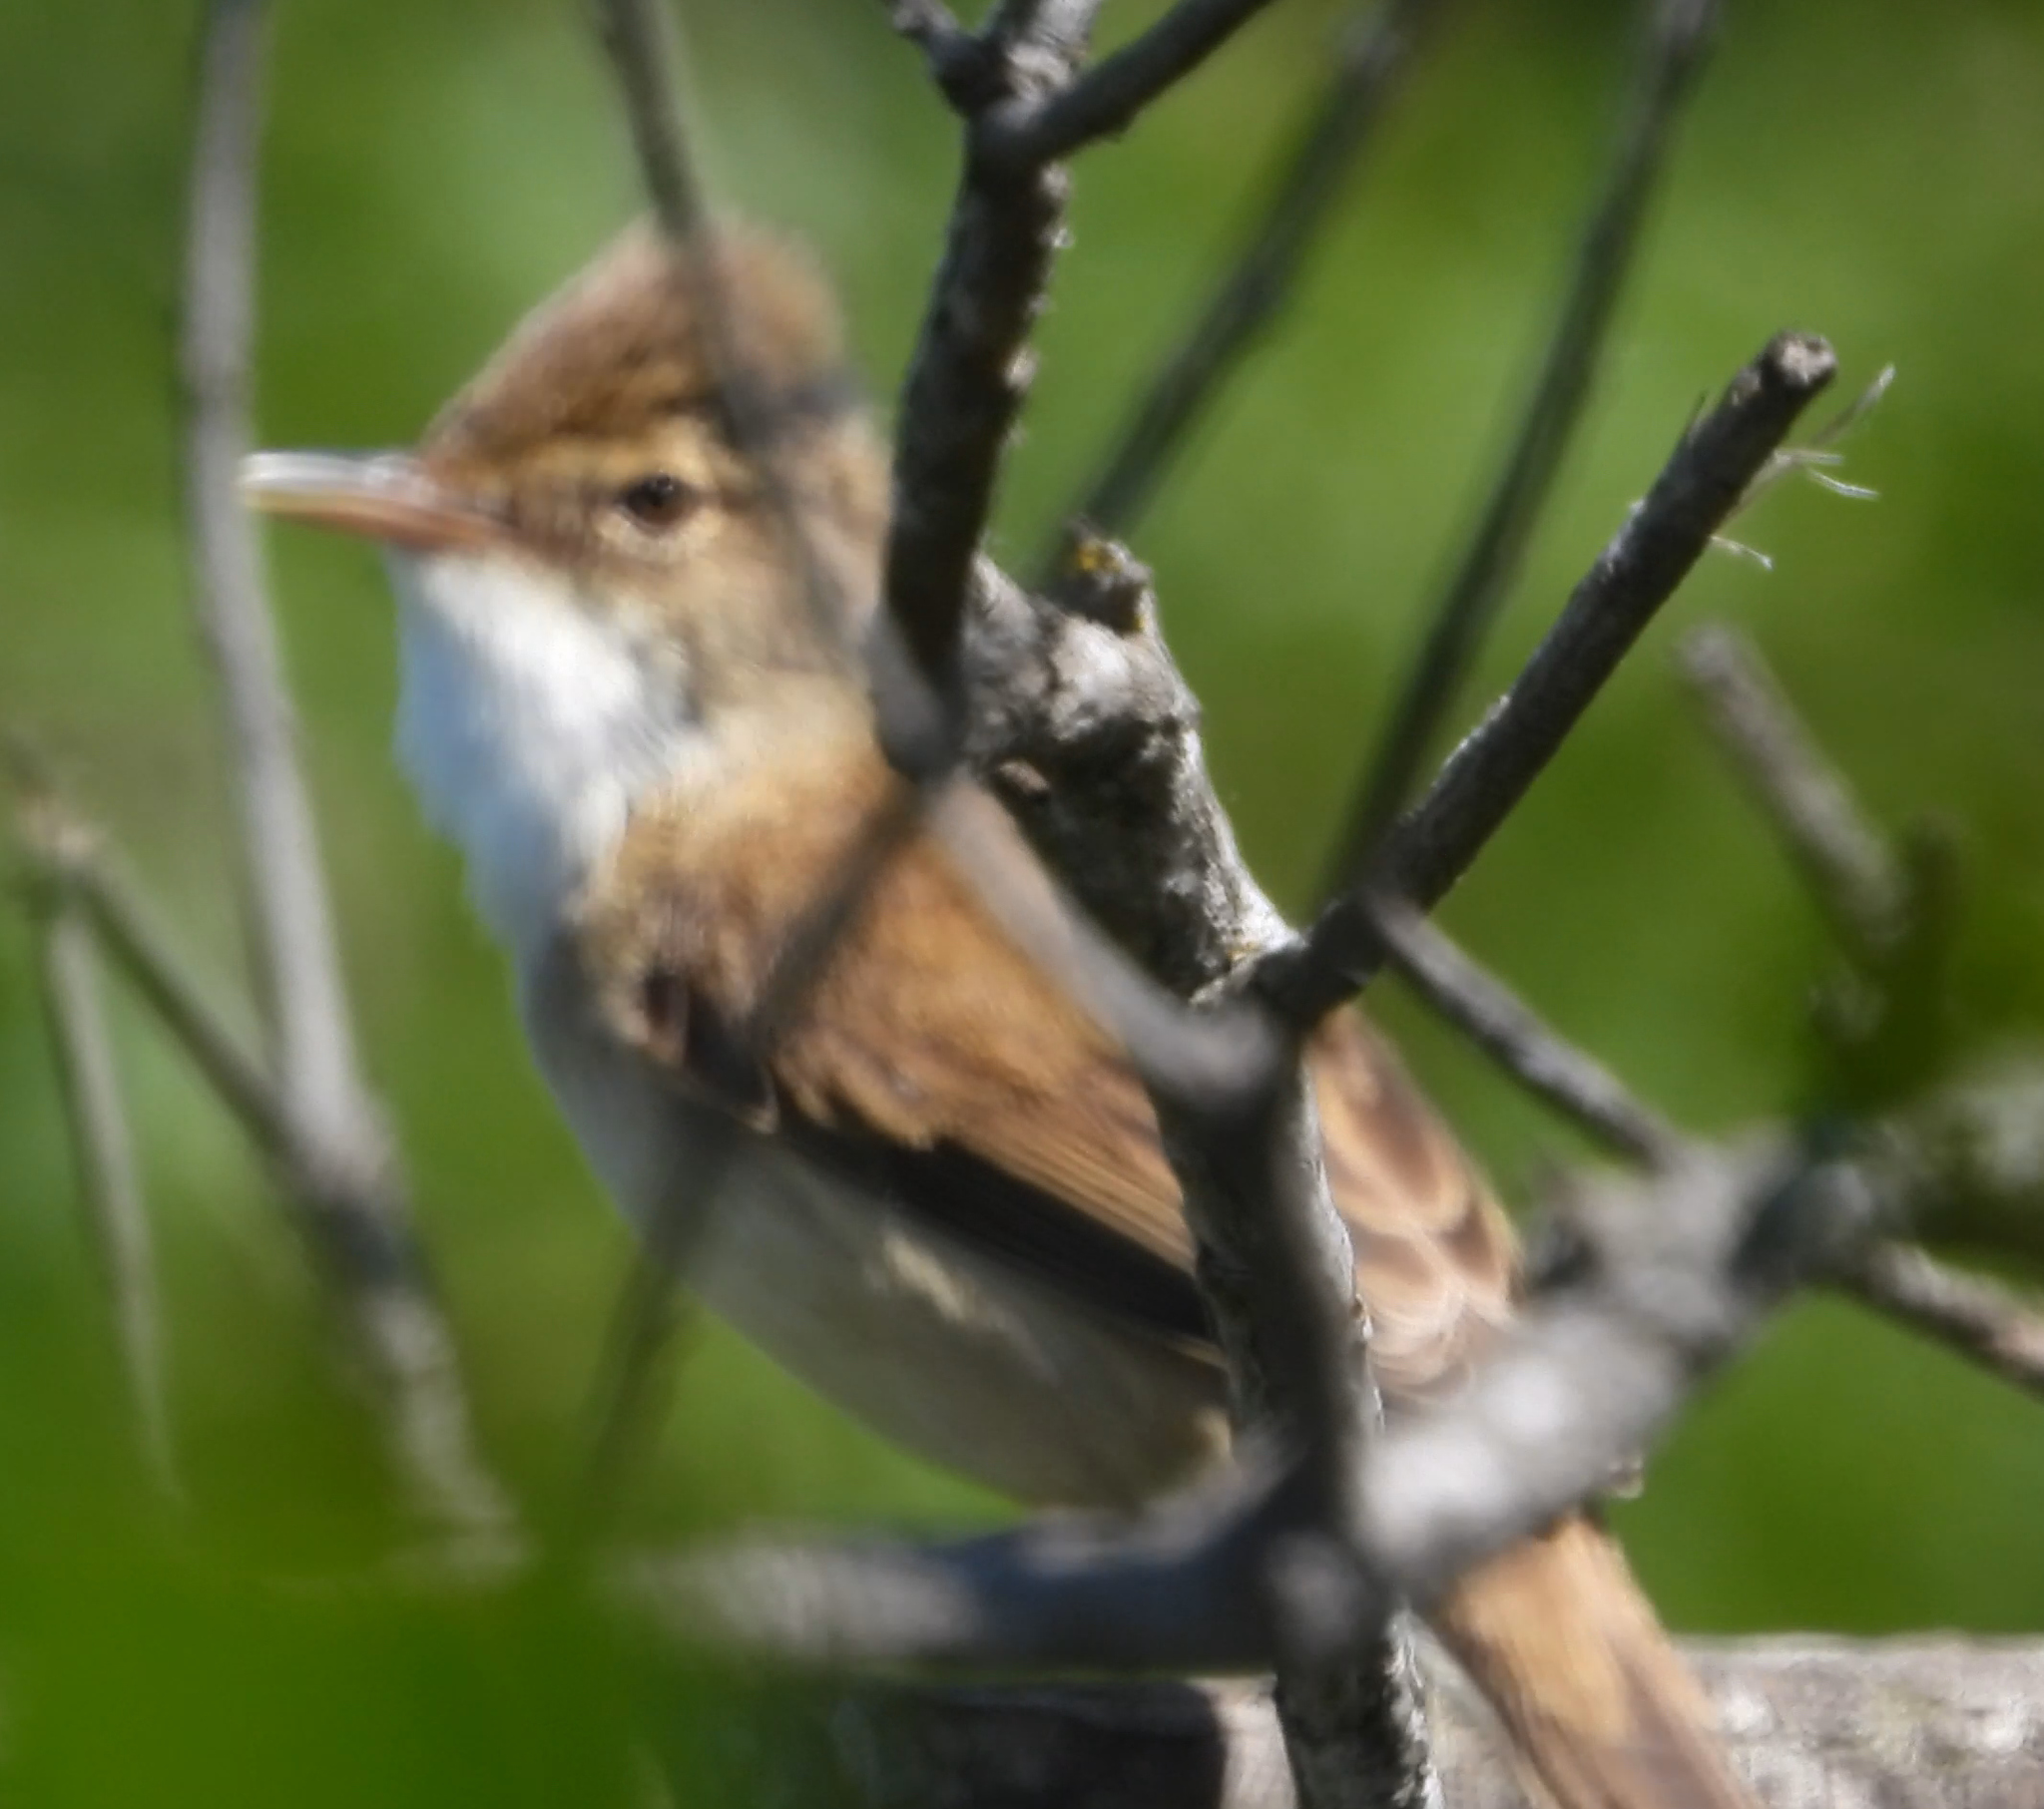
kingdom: Animalia
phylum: Chordata
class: Aves
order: Passeriformes
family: Acrocephalidae
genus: Acrocephalus
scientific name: Acrocephalus scirpaceus
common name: Eurasian reed warbler
